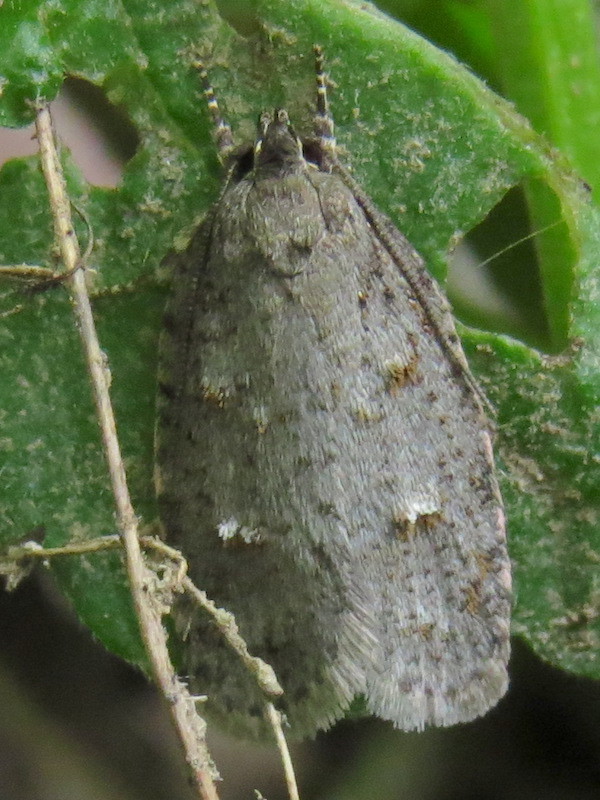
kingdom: Animalia
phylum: Arthropoda
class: Insecta
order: Lepidoptera
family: Depressariidae
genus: Bibarrambla
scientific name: Bibarrambla allenella
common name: Bog bibarrambla moth
